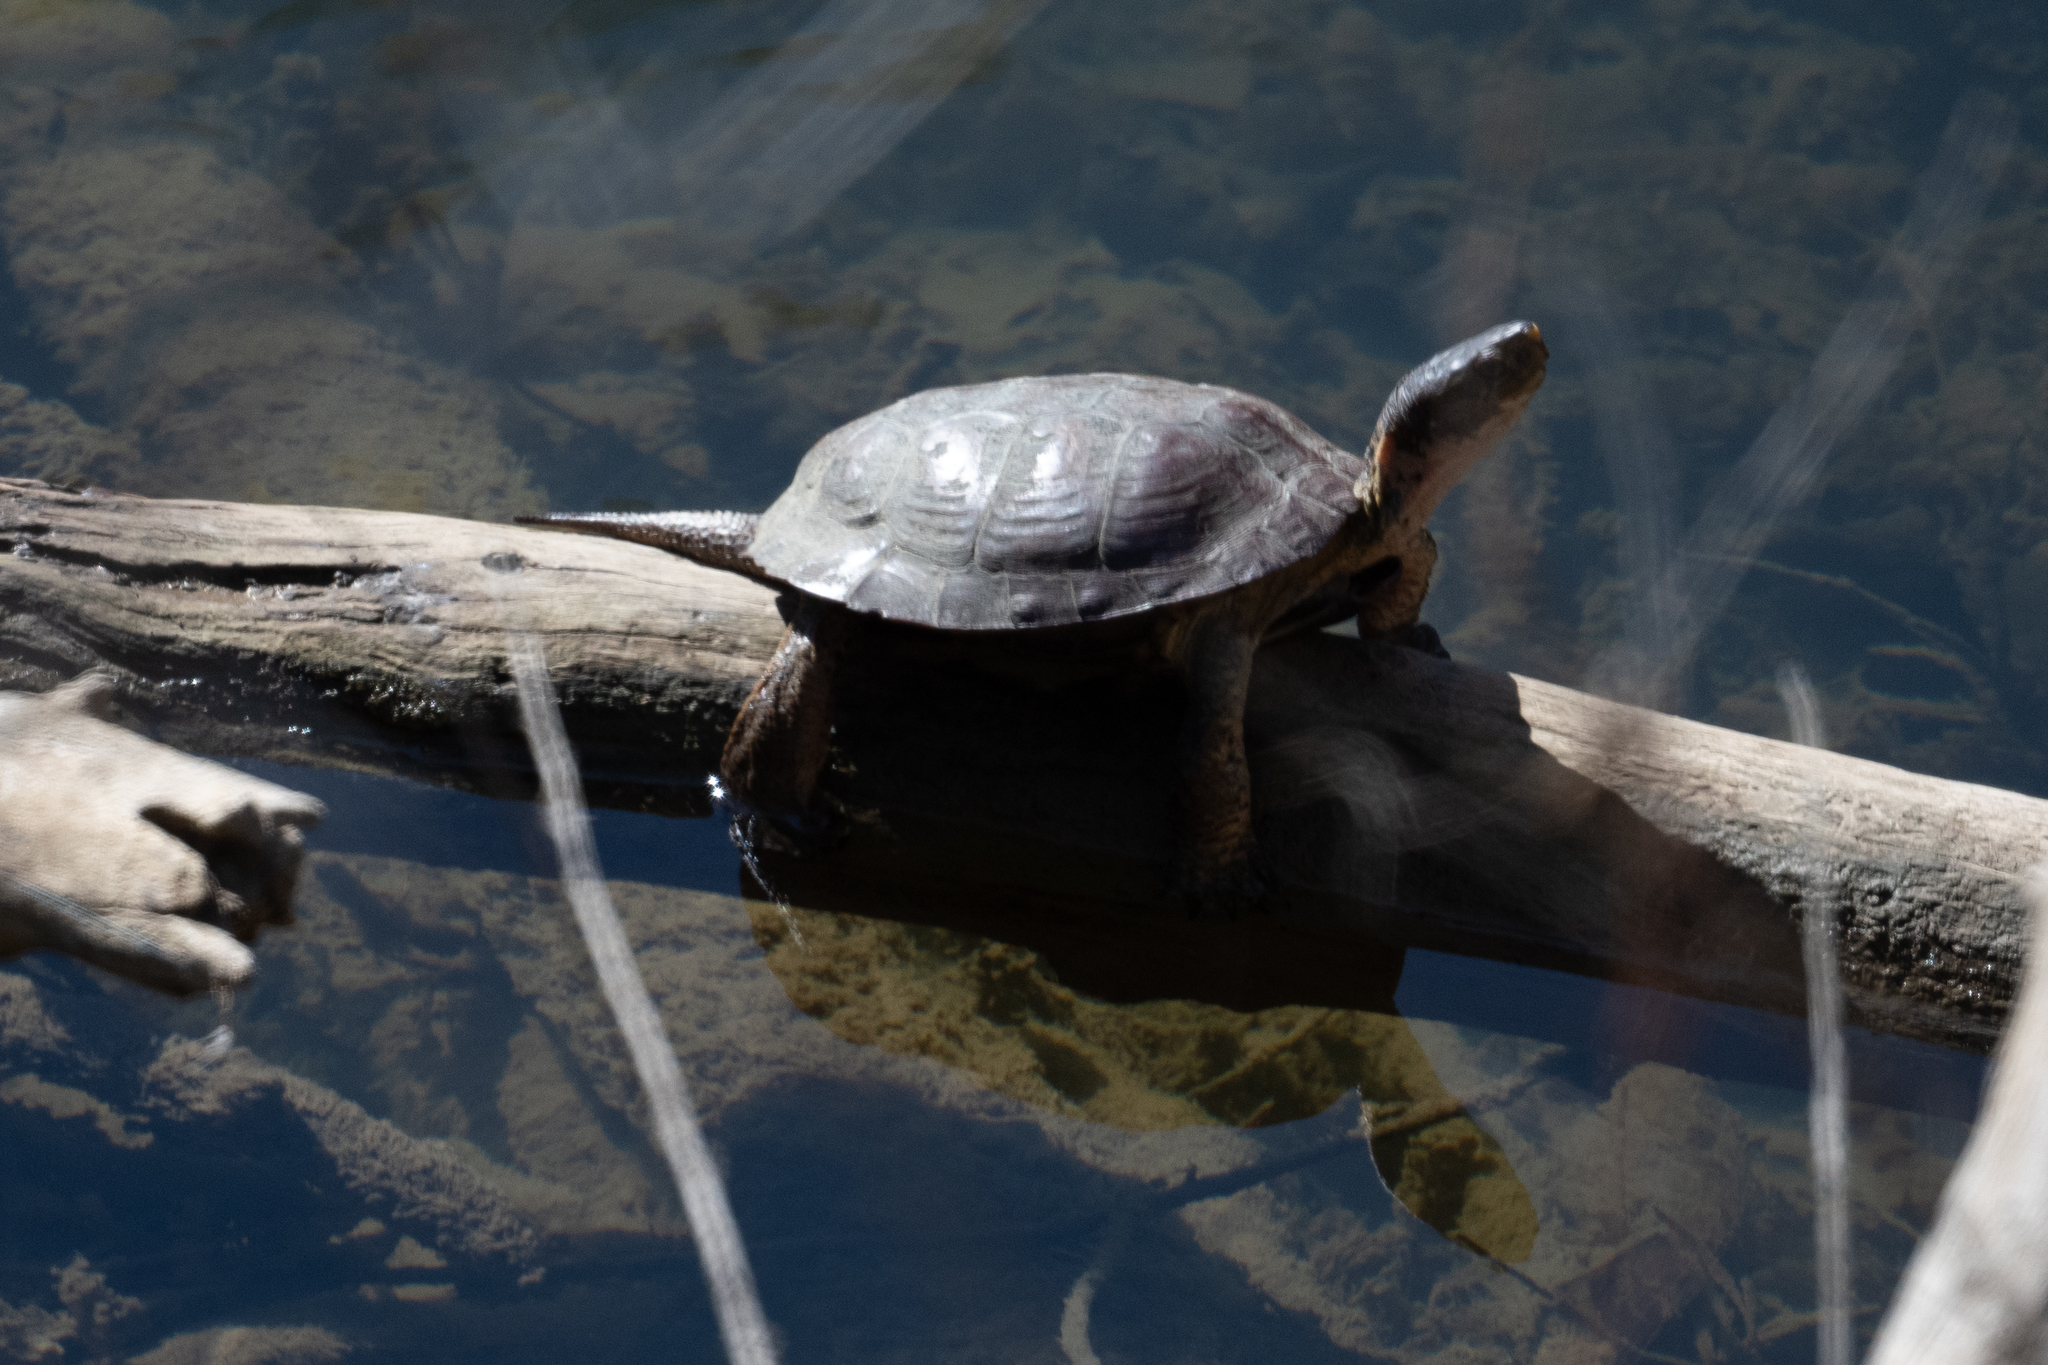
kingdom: Animalia
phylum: Chordata
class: Testudines
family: Emydidae
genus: Actinemys
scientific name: Actinemys marmorata
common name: Western pond turtle
